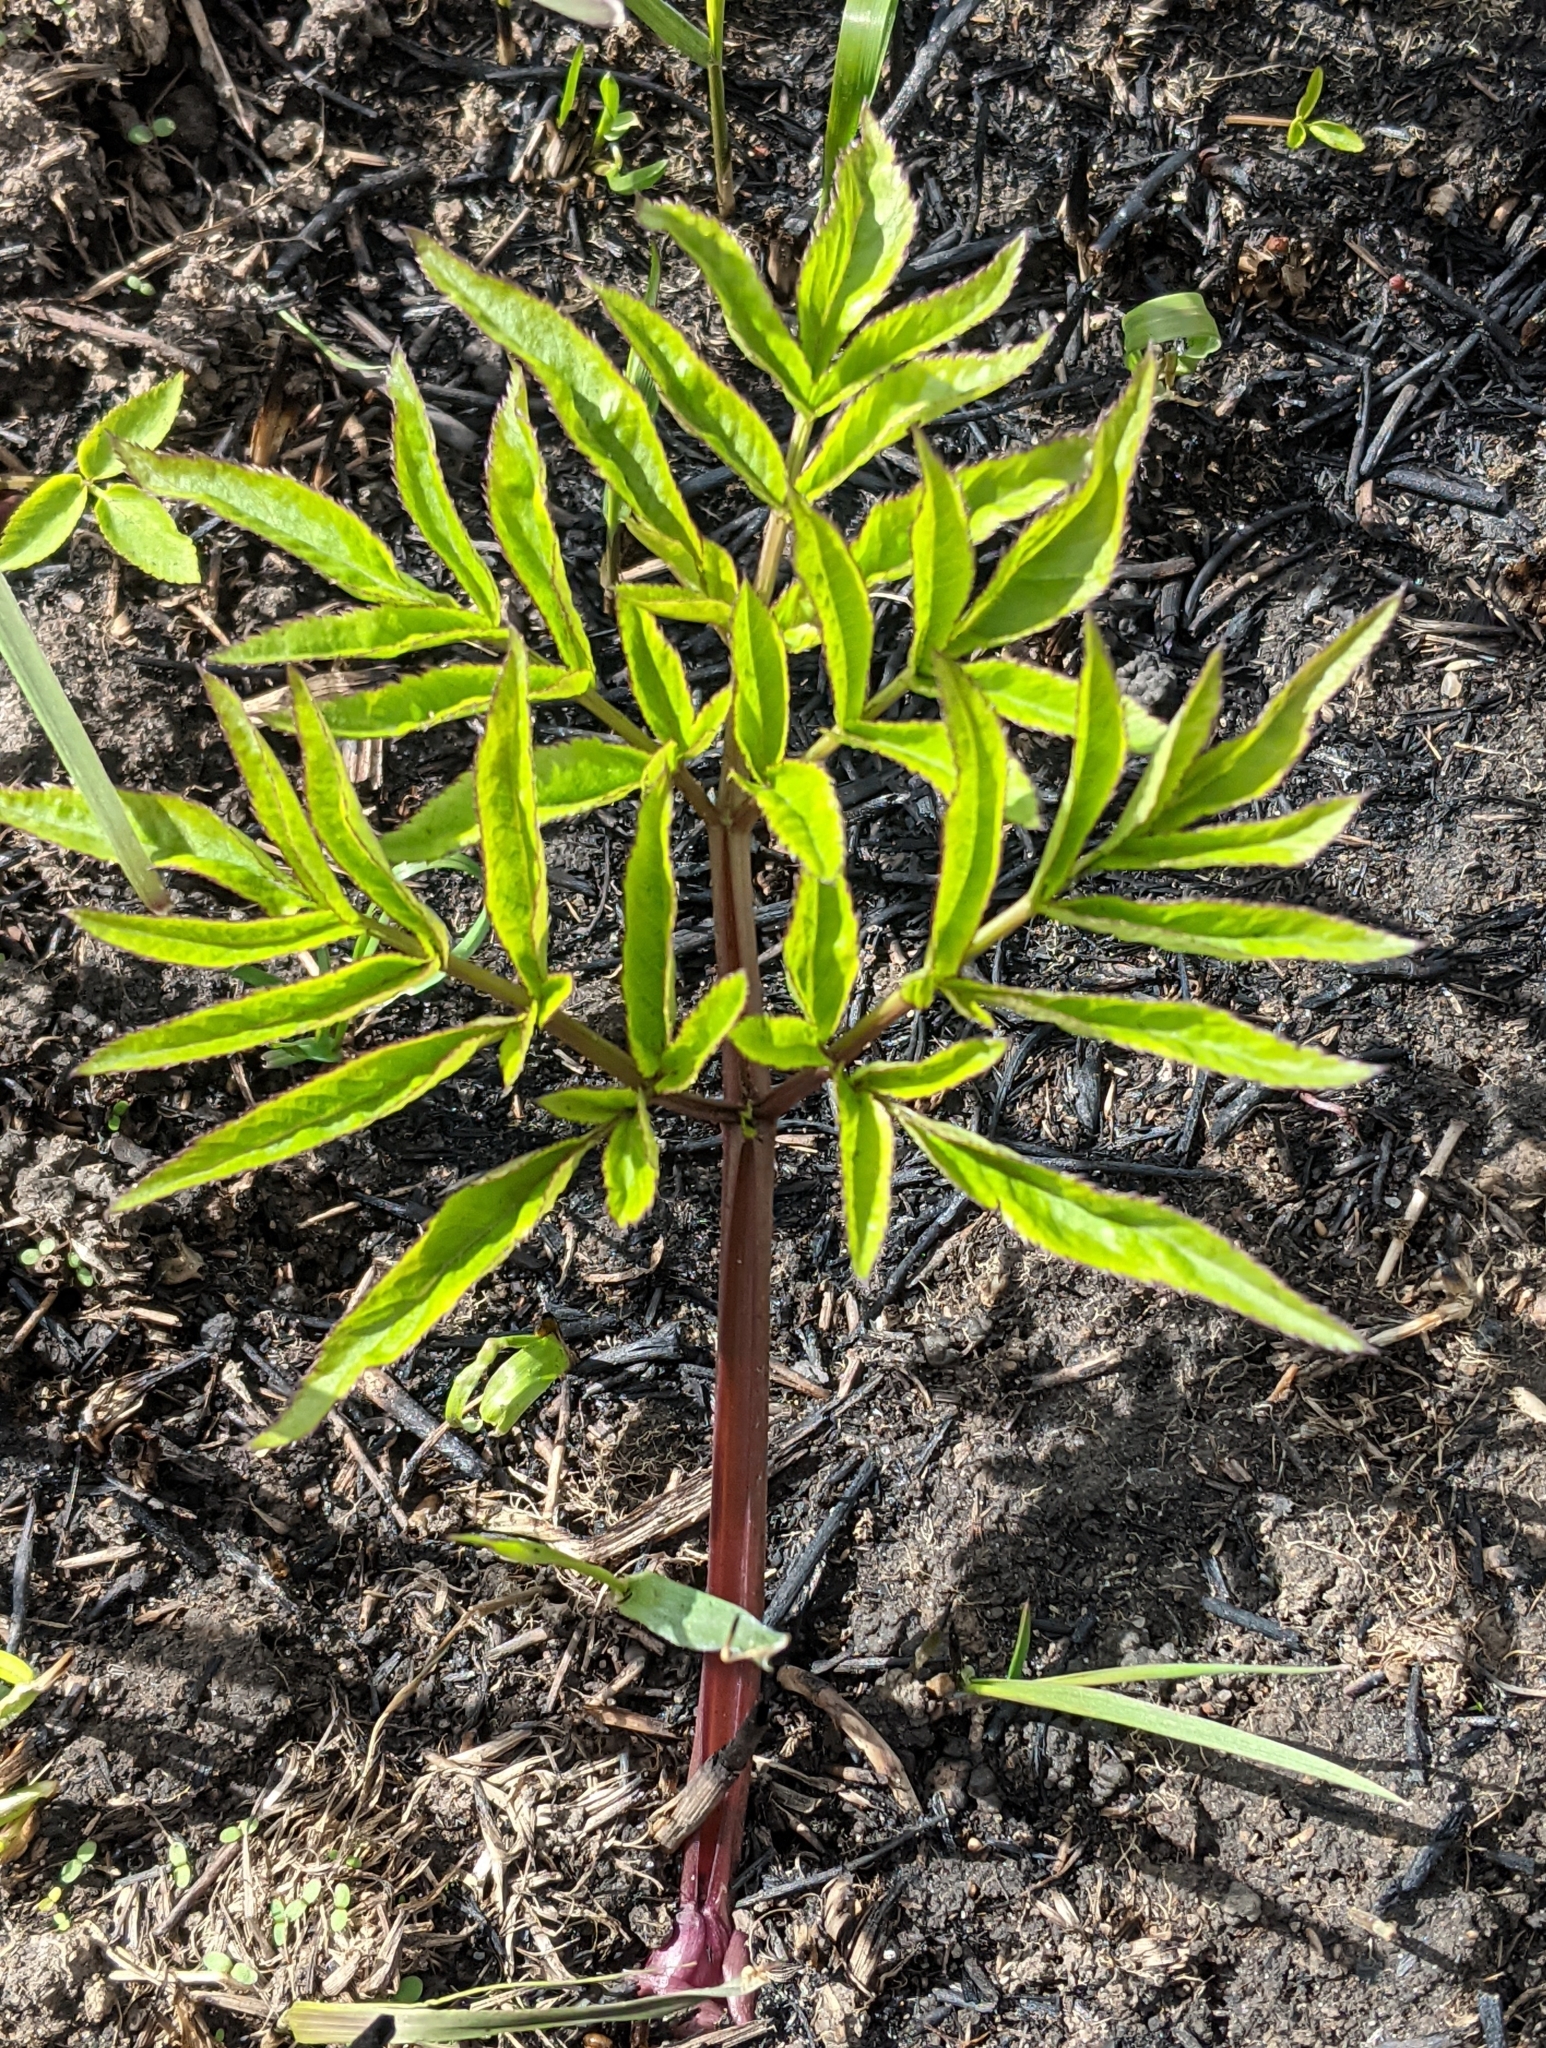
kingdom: Plantae
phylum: Tracheophyta
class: Magnoliopsida
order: Apiales
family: Apiaceae
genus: Angelica
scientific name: Angelica sylvestris
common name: Wild angelica
